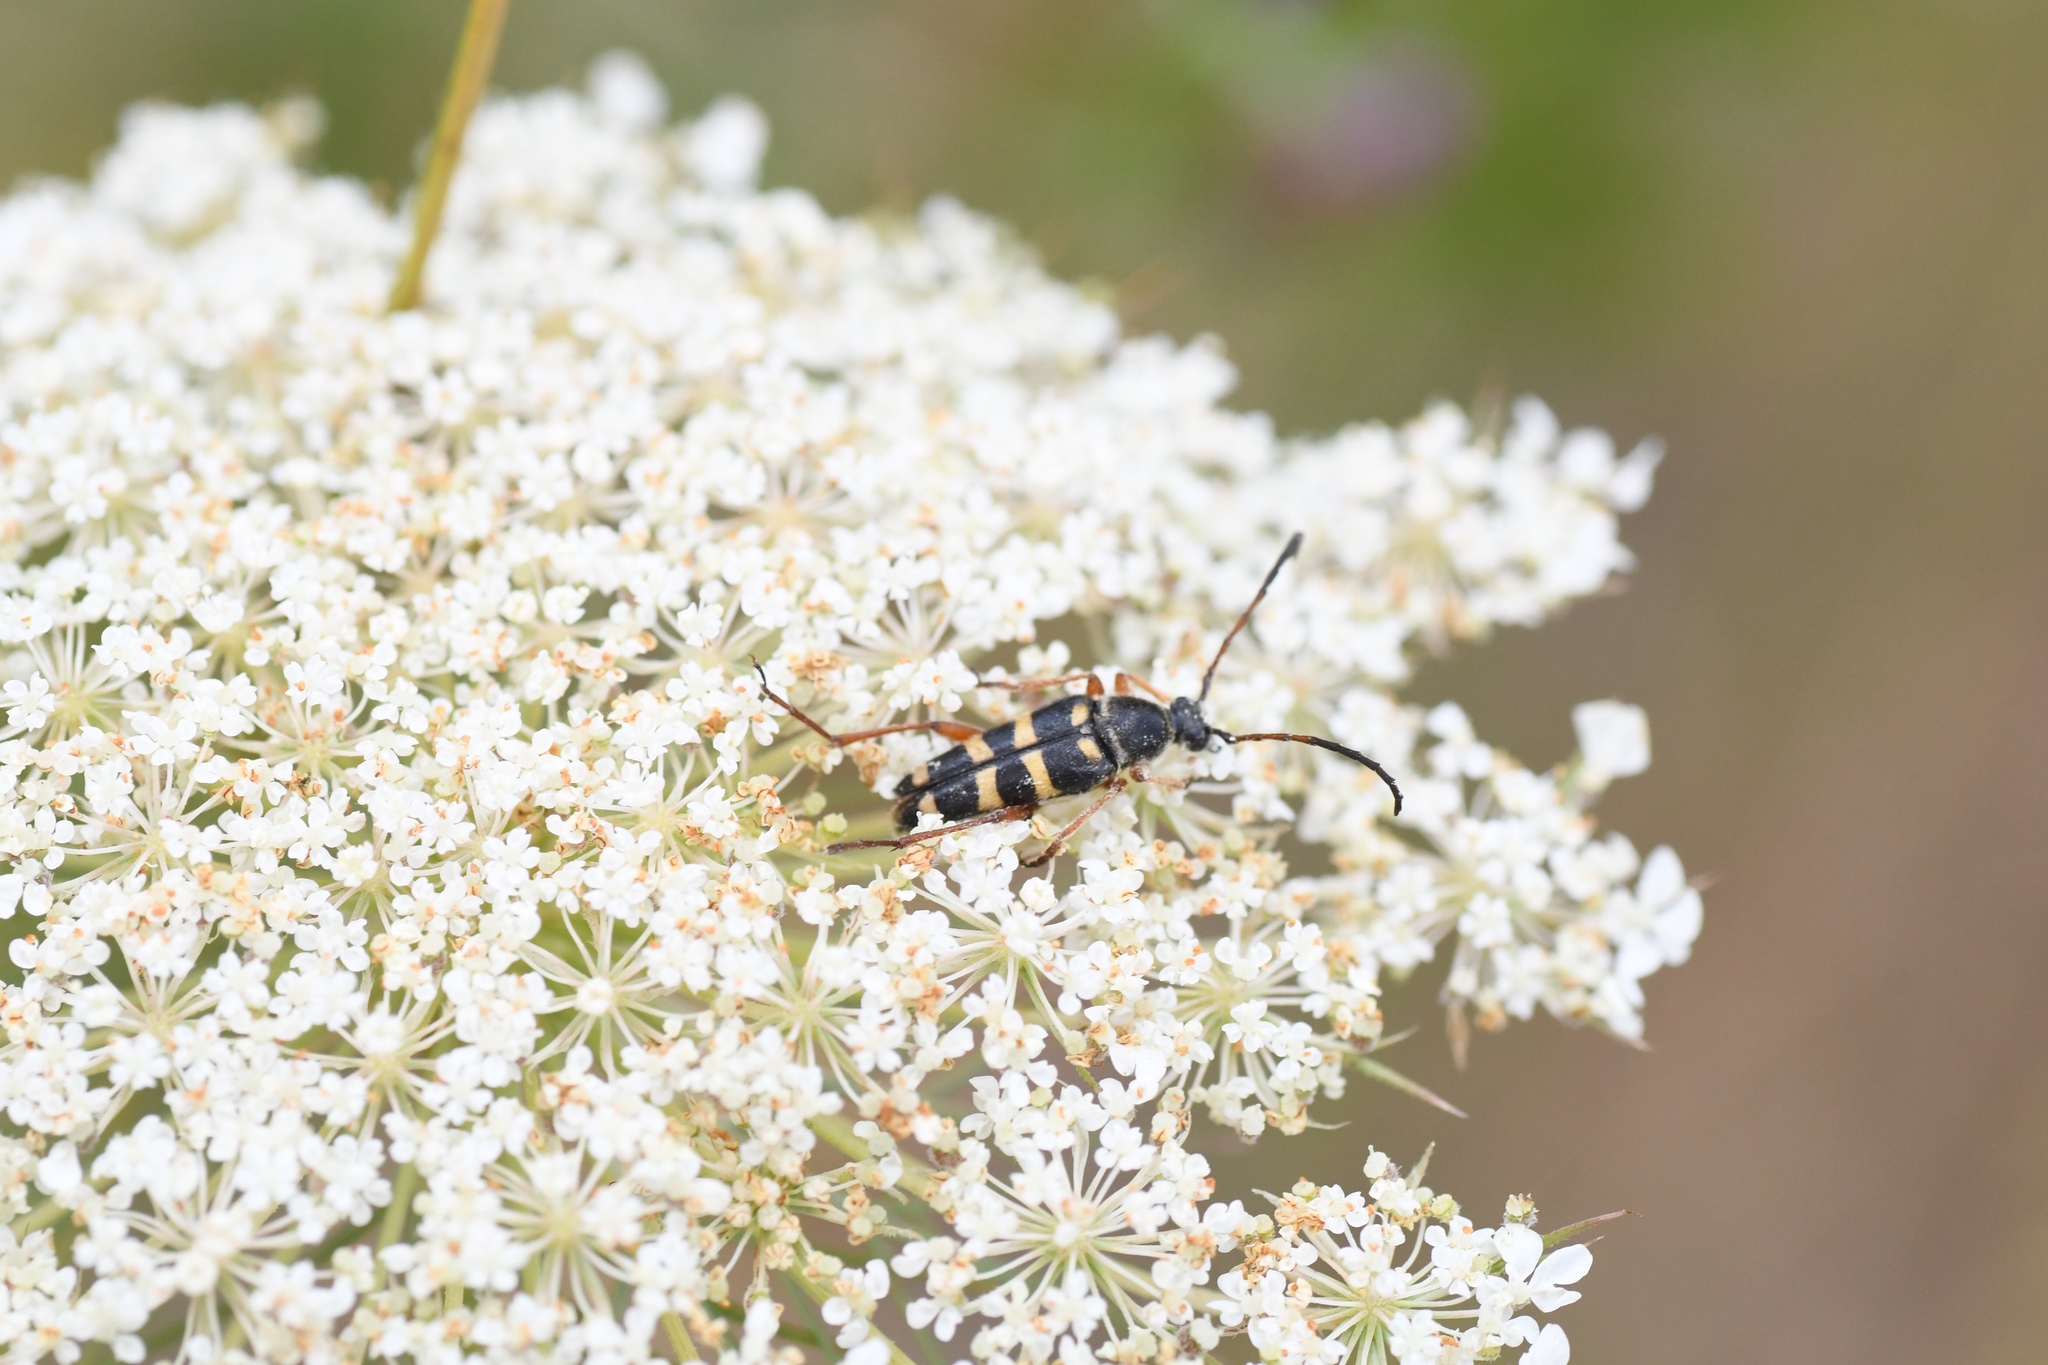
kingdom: Animalia
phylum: Arthropoda
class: Insecta
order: Coleoptera
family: Cerambycidae
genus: Typocerus
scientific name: Typocerus sparsus
